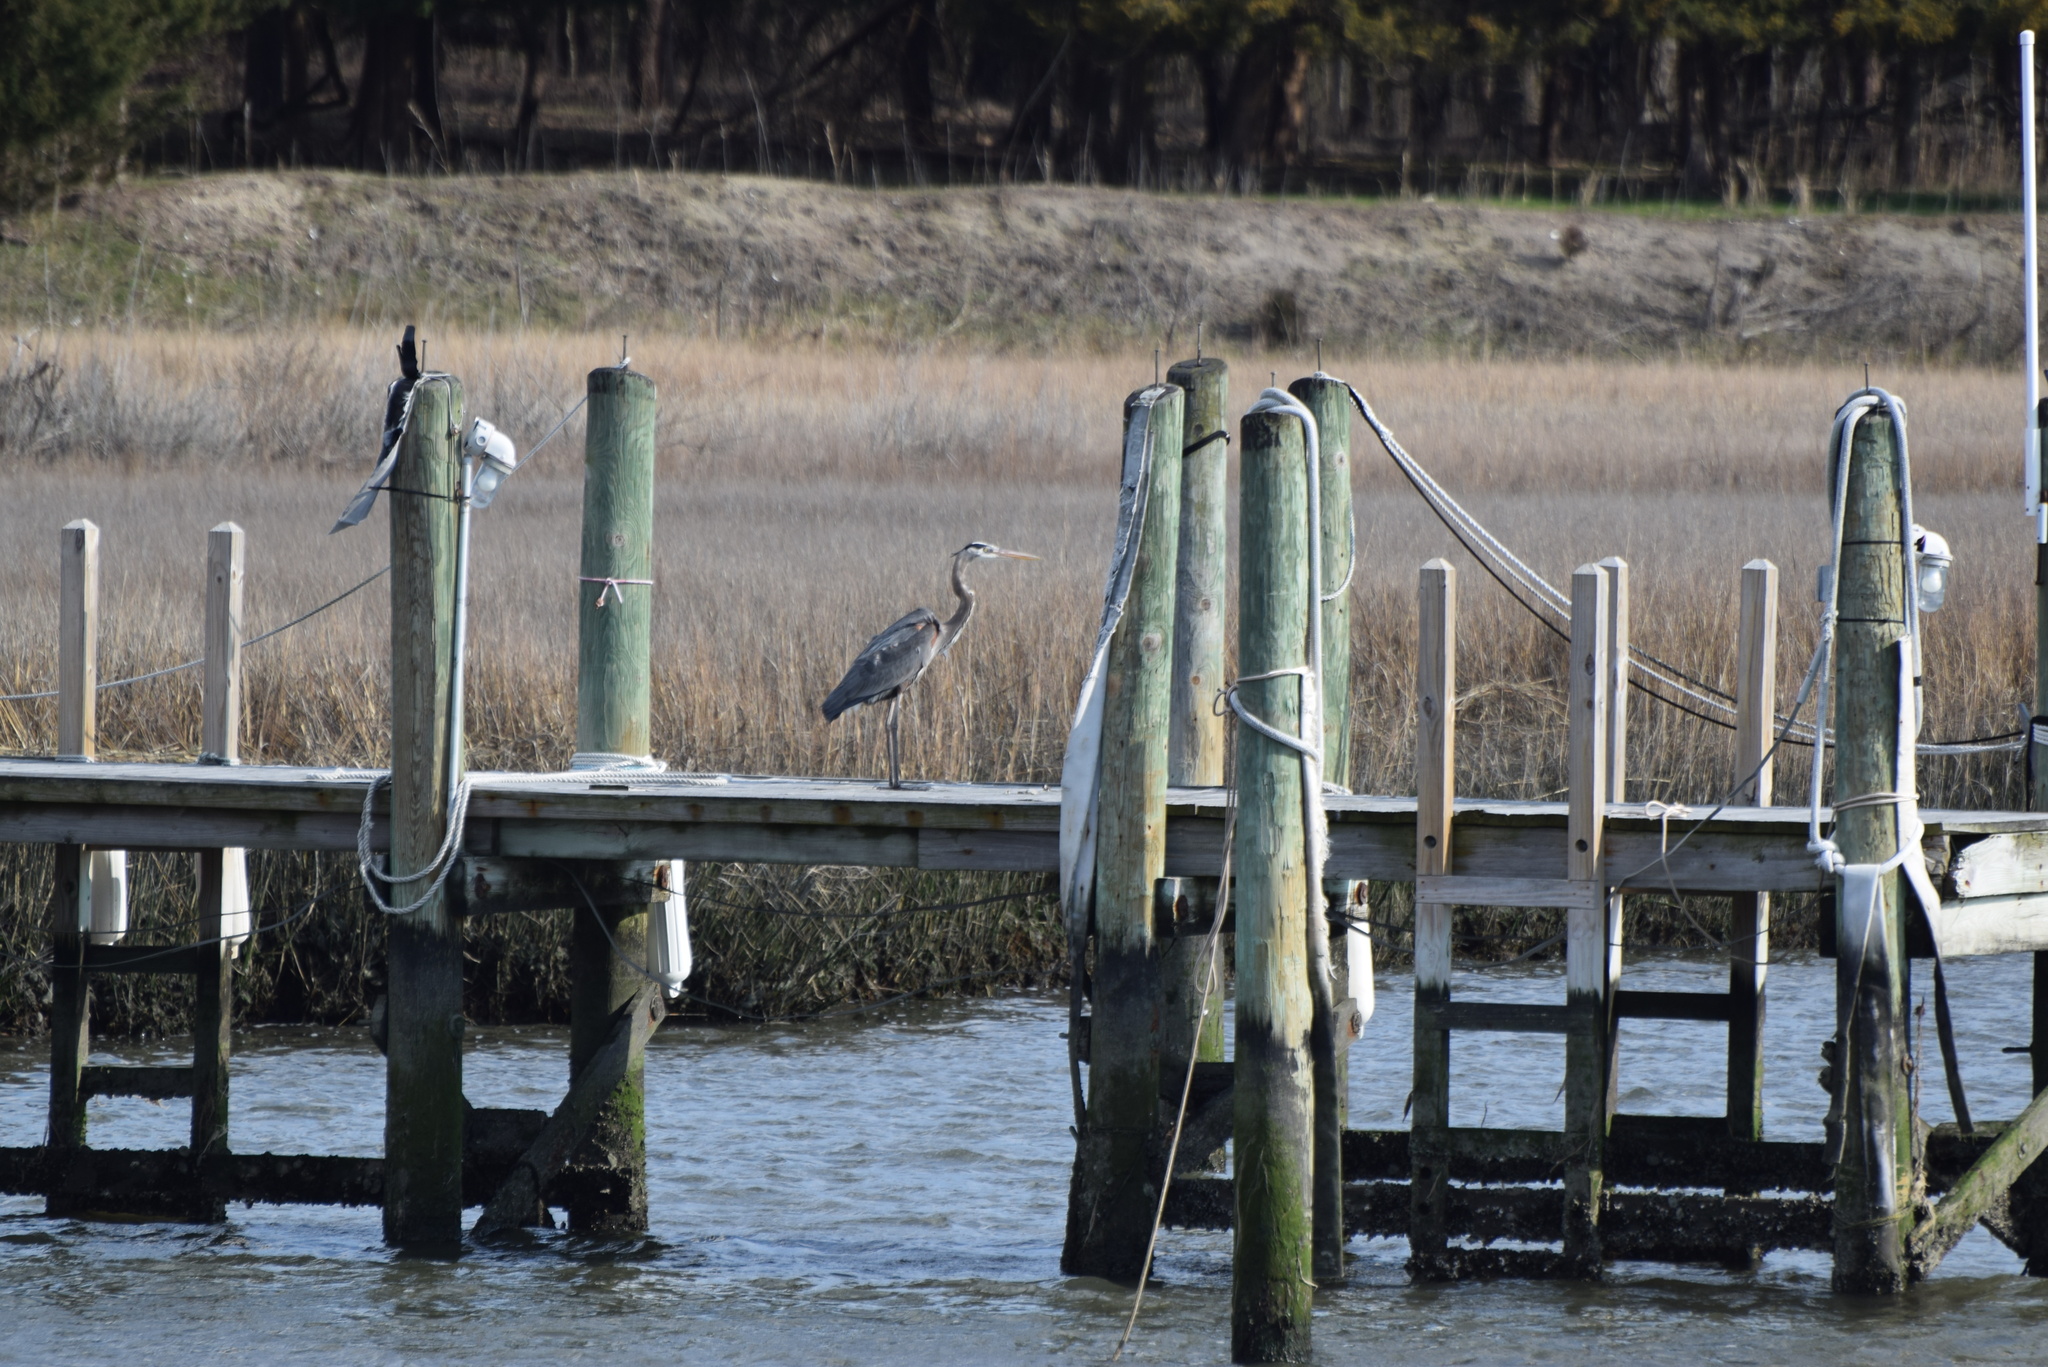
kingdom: Animalia
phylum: Chordata
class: Aves
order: Pelecaniformes
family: Ardeidae
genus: Ardea
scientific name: Ardea herodias
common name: Great blue heron
